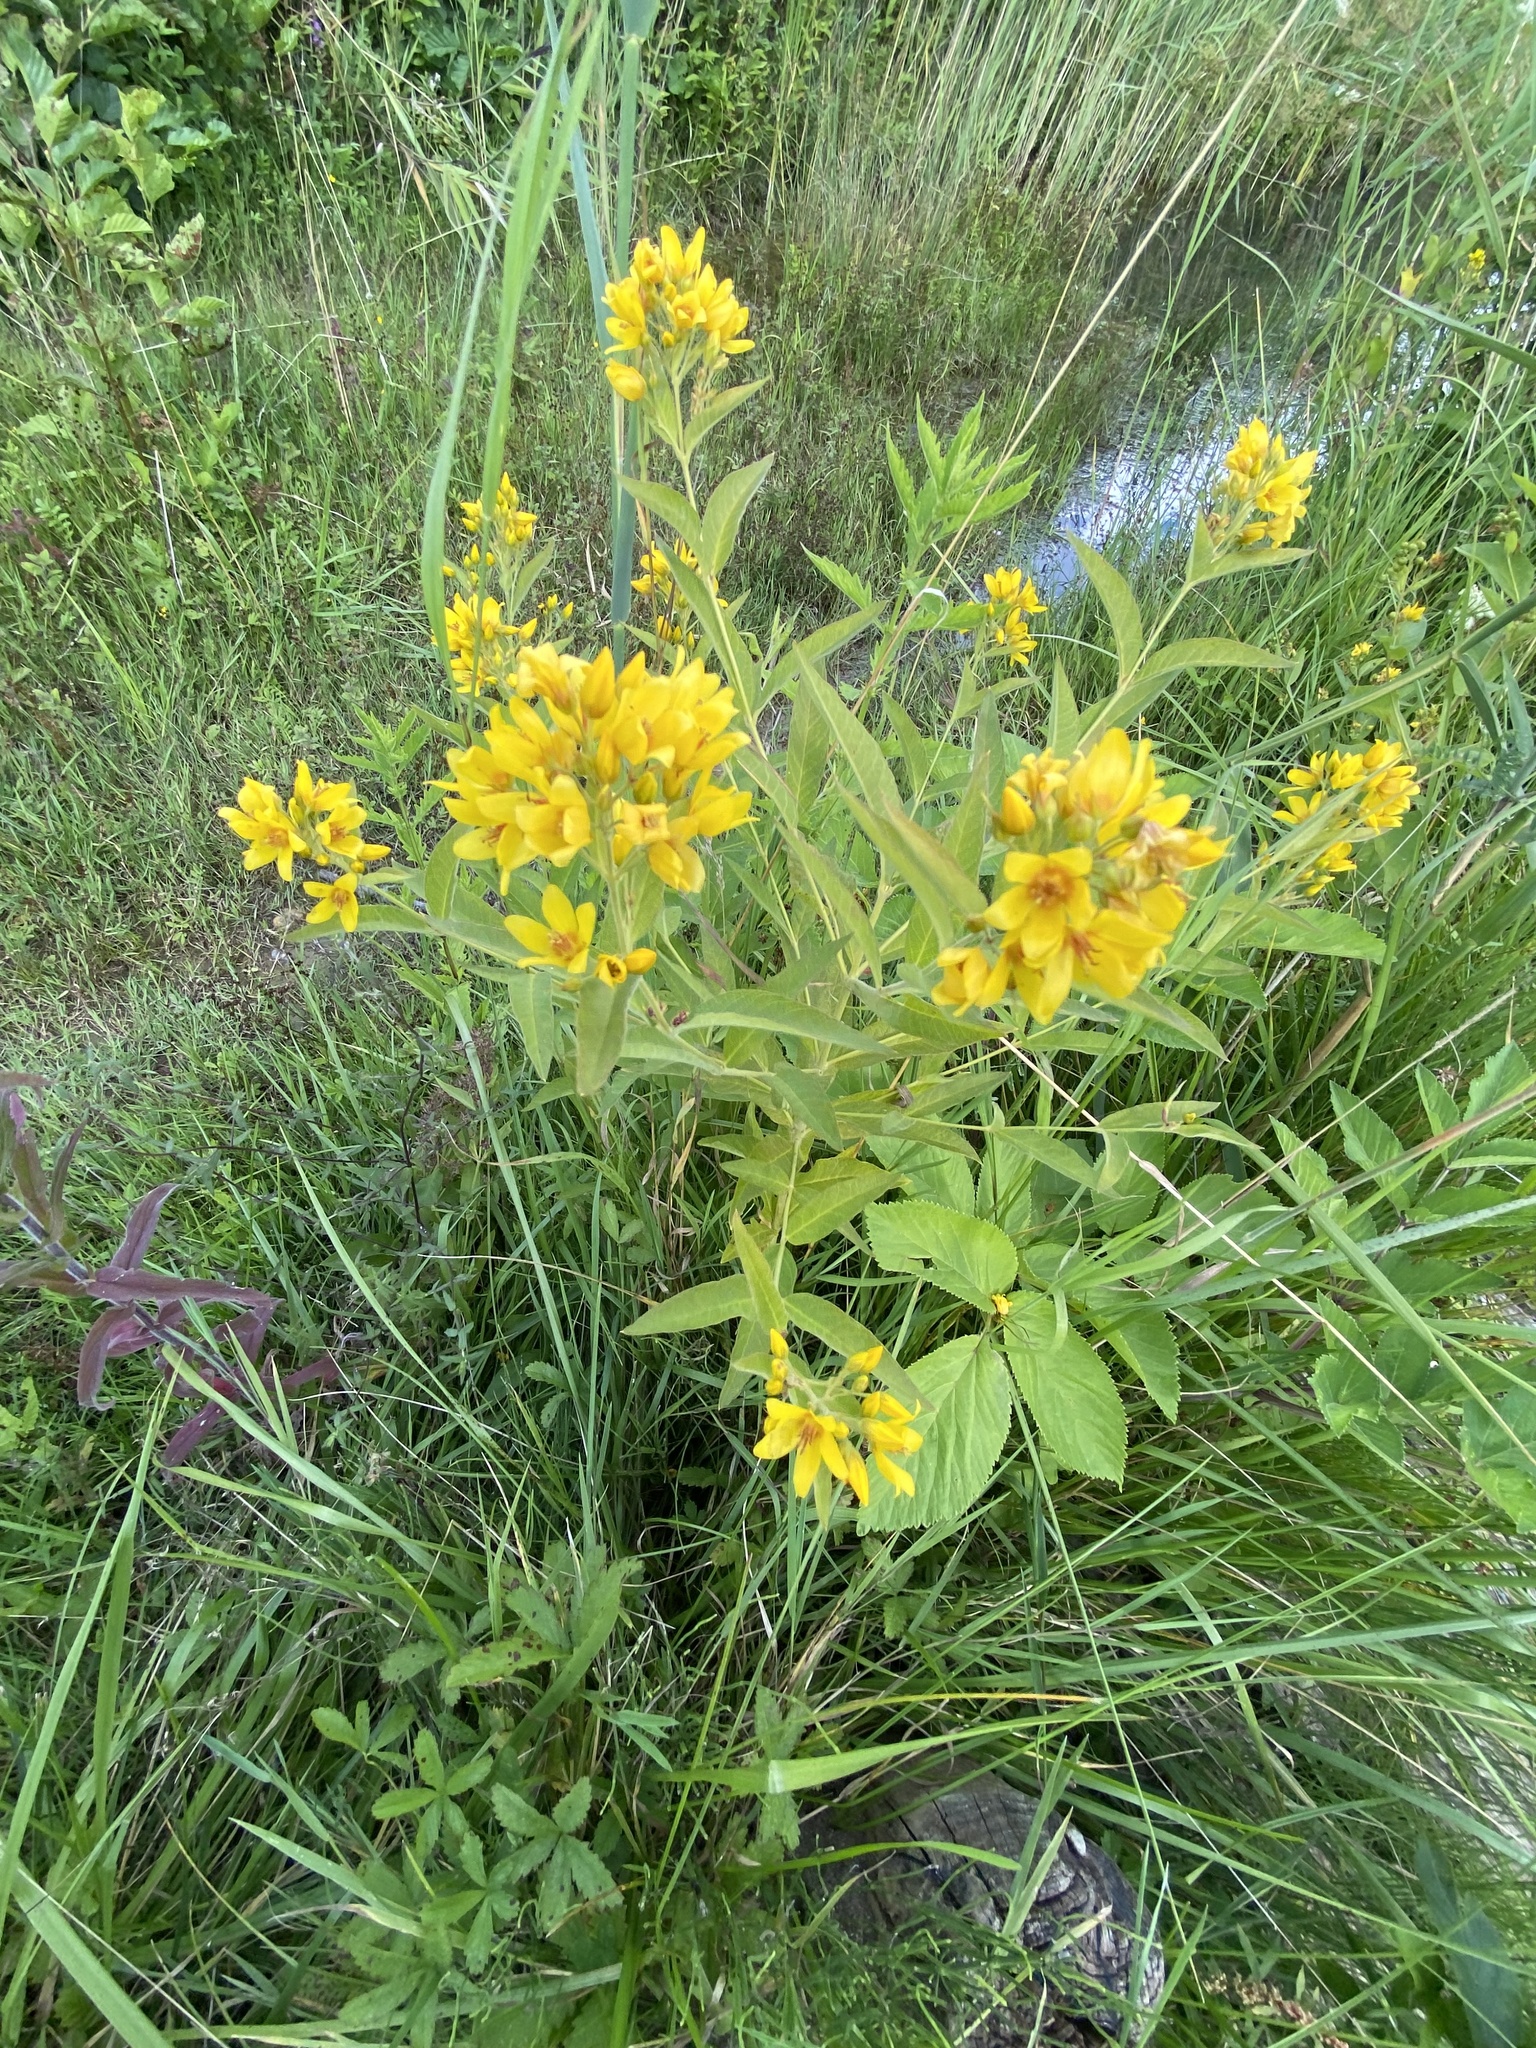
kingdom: Plantae
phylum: Tracheophyta
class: Magnoliopsida
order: Ericales
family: Primulaceae
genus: Lysimachia
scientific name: Lysimachia vulgaris
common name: Yellow loosestrife
